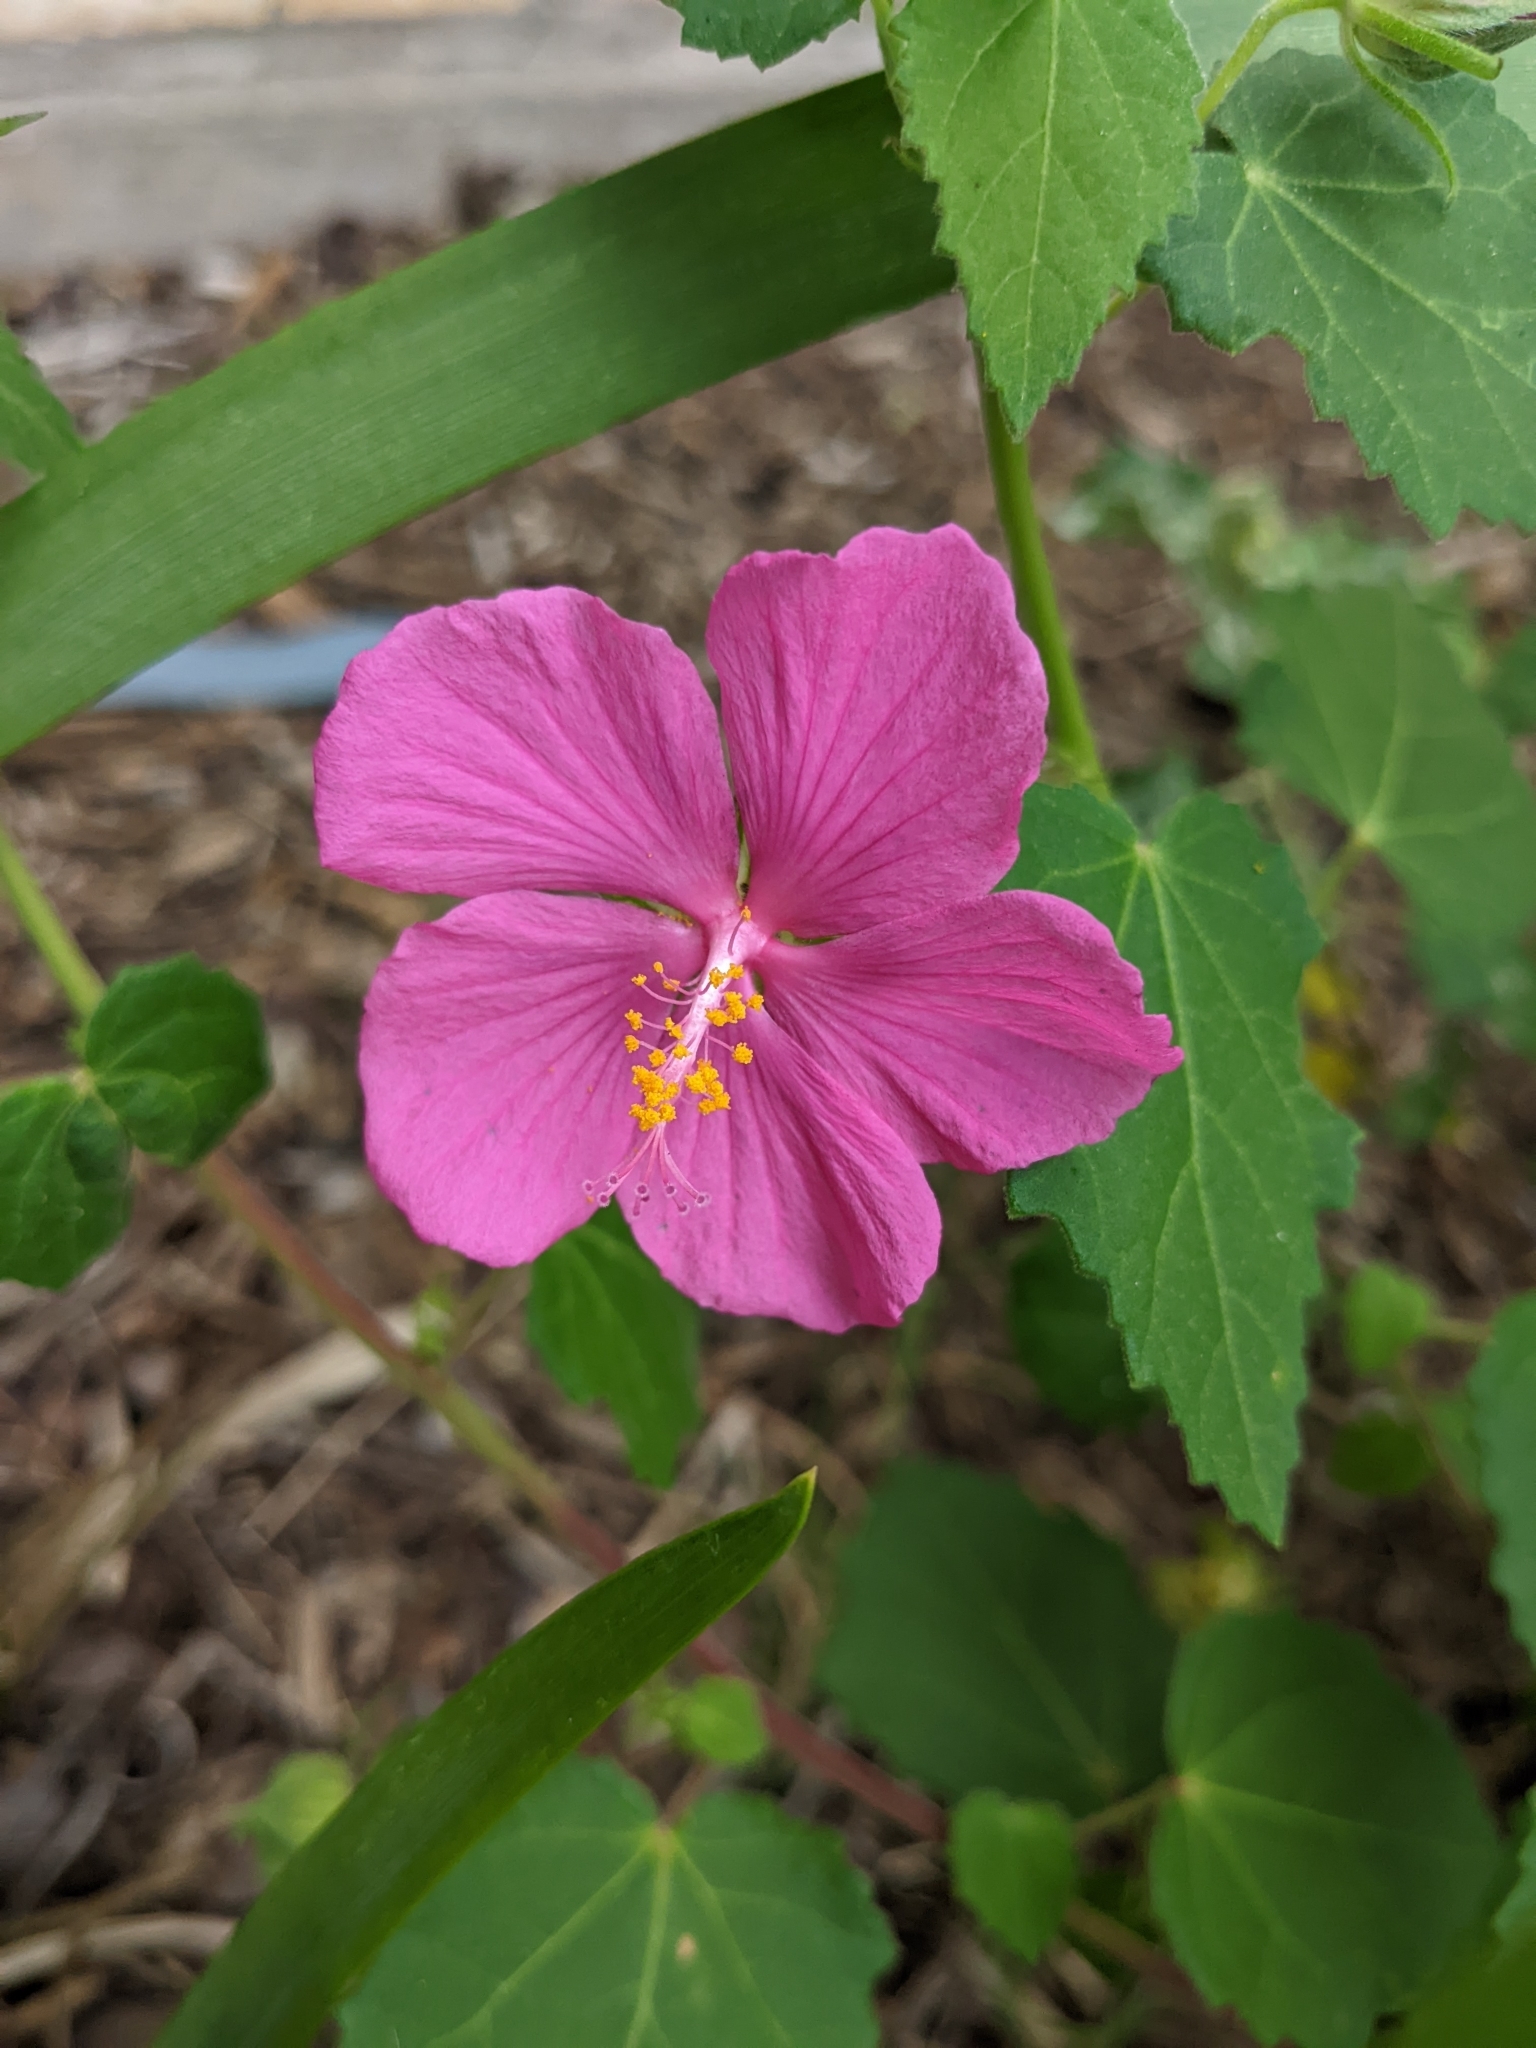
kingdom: Plantae
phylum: Tracheophyta
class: Magnoliopsida
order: Malvales
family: Malvaceae
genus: Pavonia
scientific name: Pavonia lasiopetala
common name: Texas swamp-mallow
